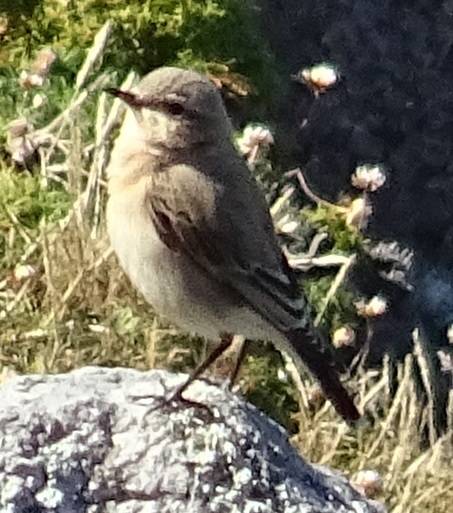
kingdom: Animalia
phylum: Chordata
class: Aves
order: Passeriformes
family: Muscicapidae
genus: Oenanthe
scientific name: Oenanthe oenanthe
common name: Northern wheatear
